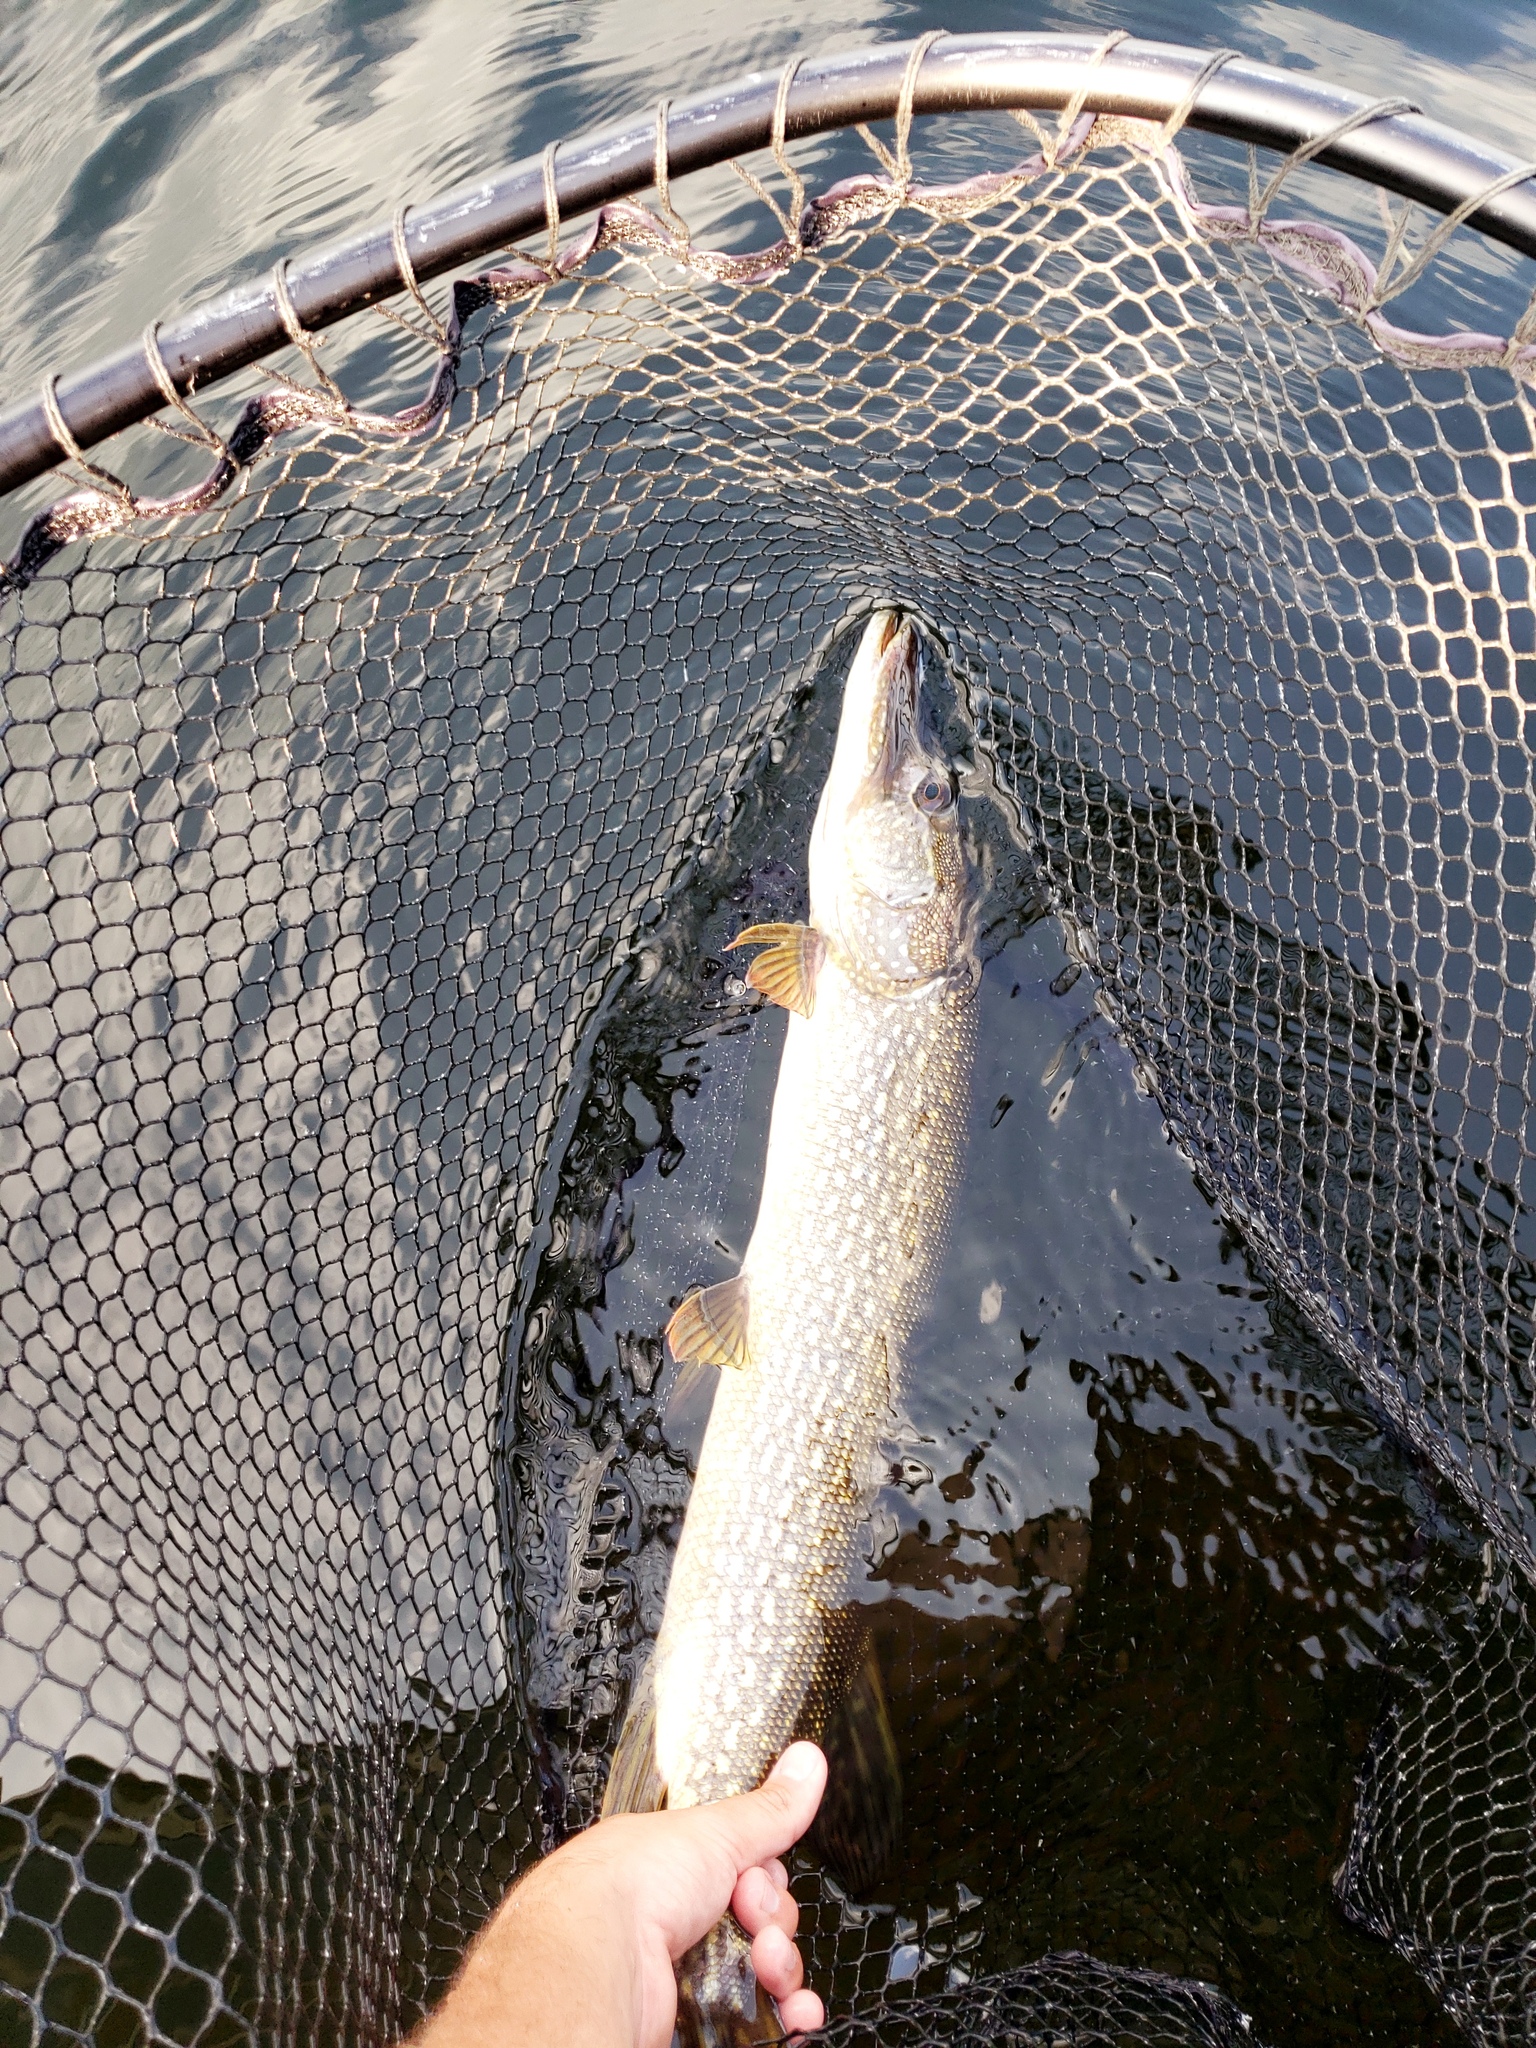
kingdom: Animalia
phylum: Chordata
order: Esociformes
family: Esocidae
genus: Esox
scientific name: Esox lucius
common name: Northern pike
